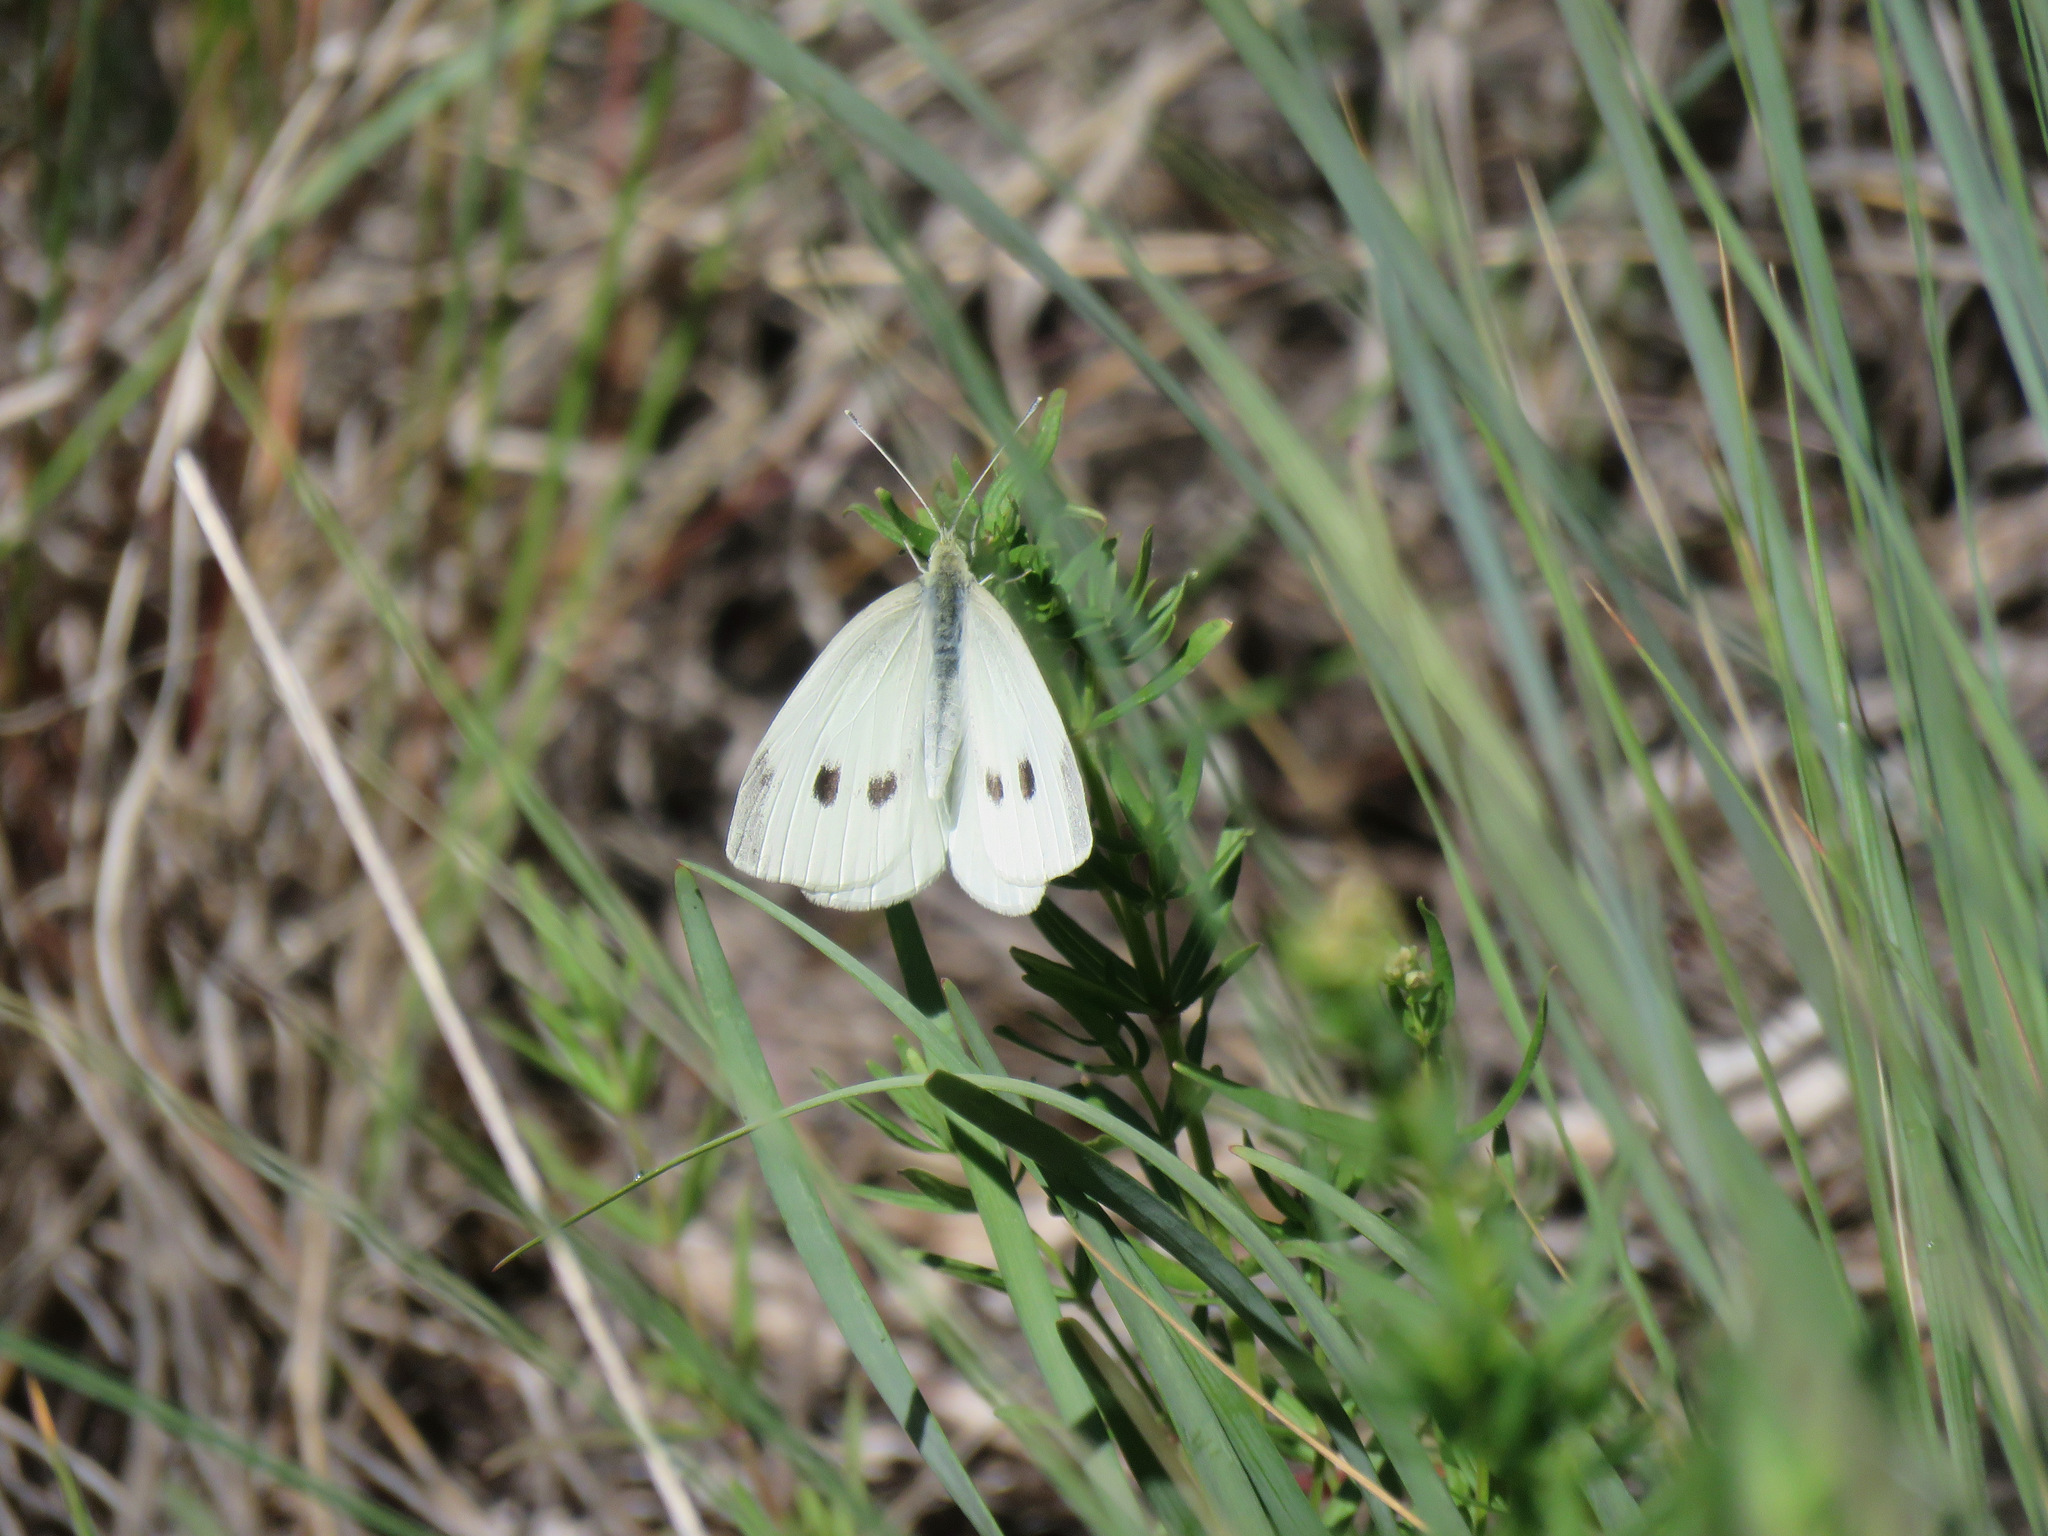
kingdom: Animalia
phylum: Arthropoda
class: Insecta
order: Lepidoptera
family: Pieridae
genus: Pieris
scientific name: Pieris rapae
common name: Small white
